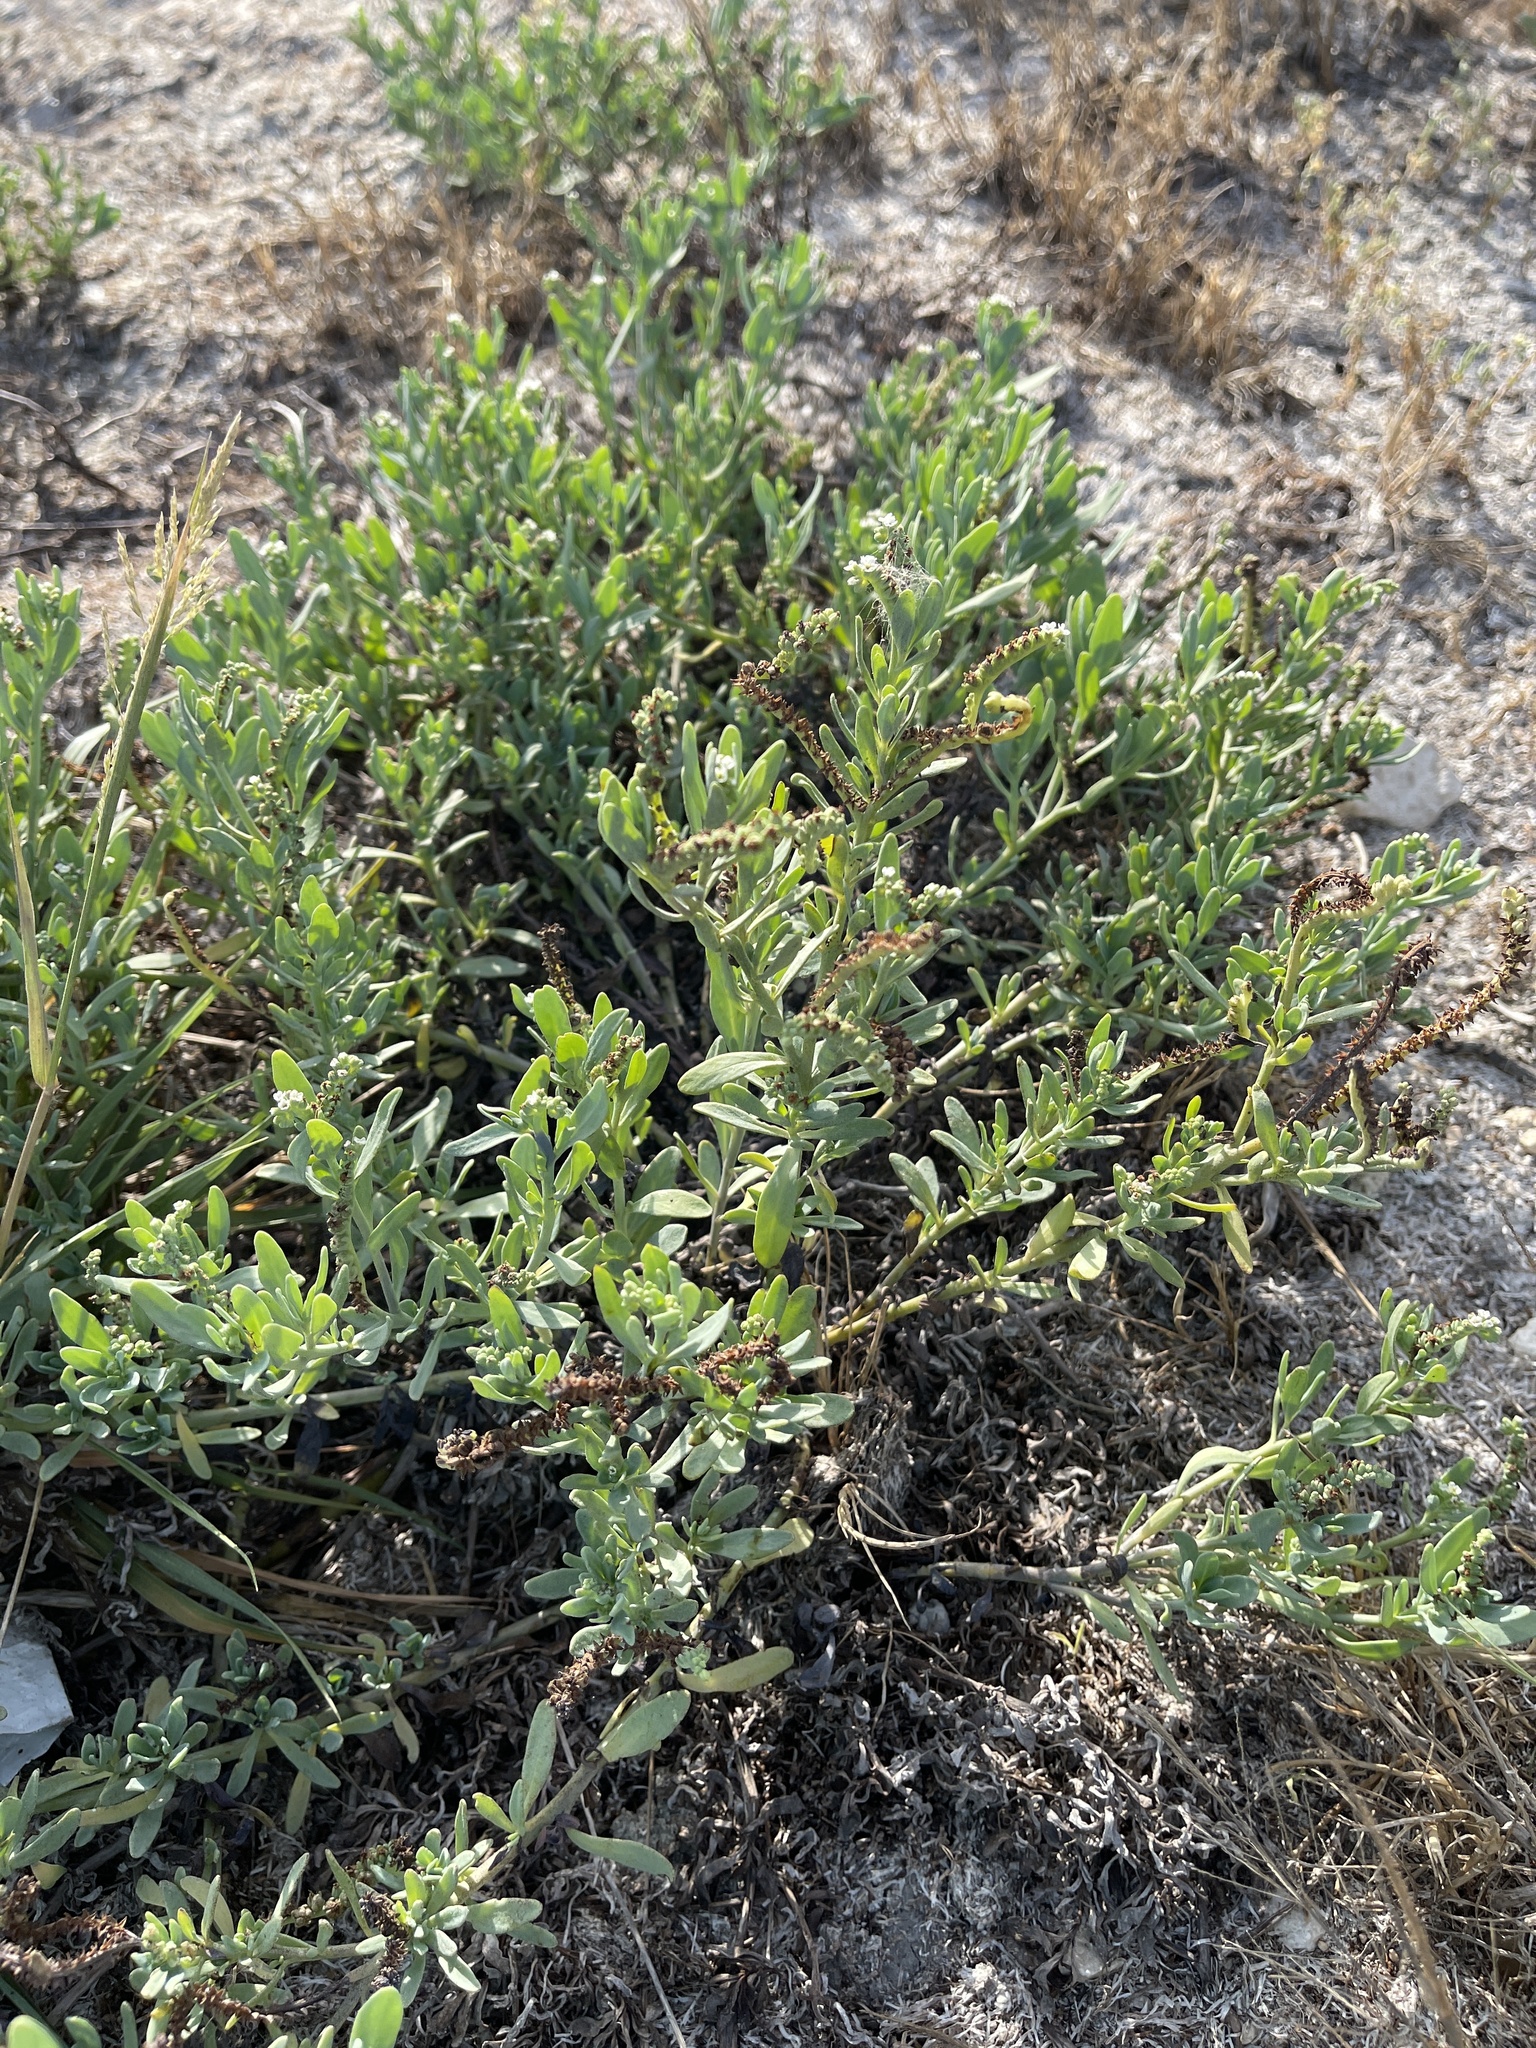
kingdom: Plantae
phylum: Tracheophyta
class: Magnoliopsida
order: Boraginales
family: Heliotropiaceae
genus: Heliotropium
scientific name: Heliotropium curassavicum
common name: Seaside heliotrope
